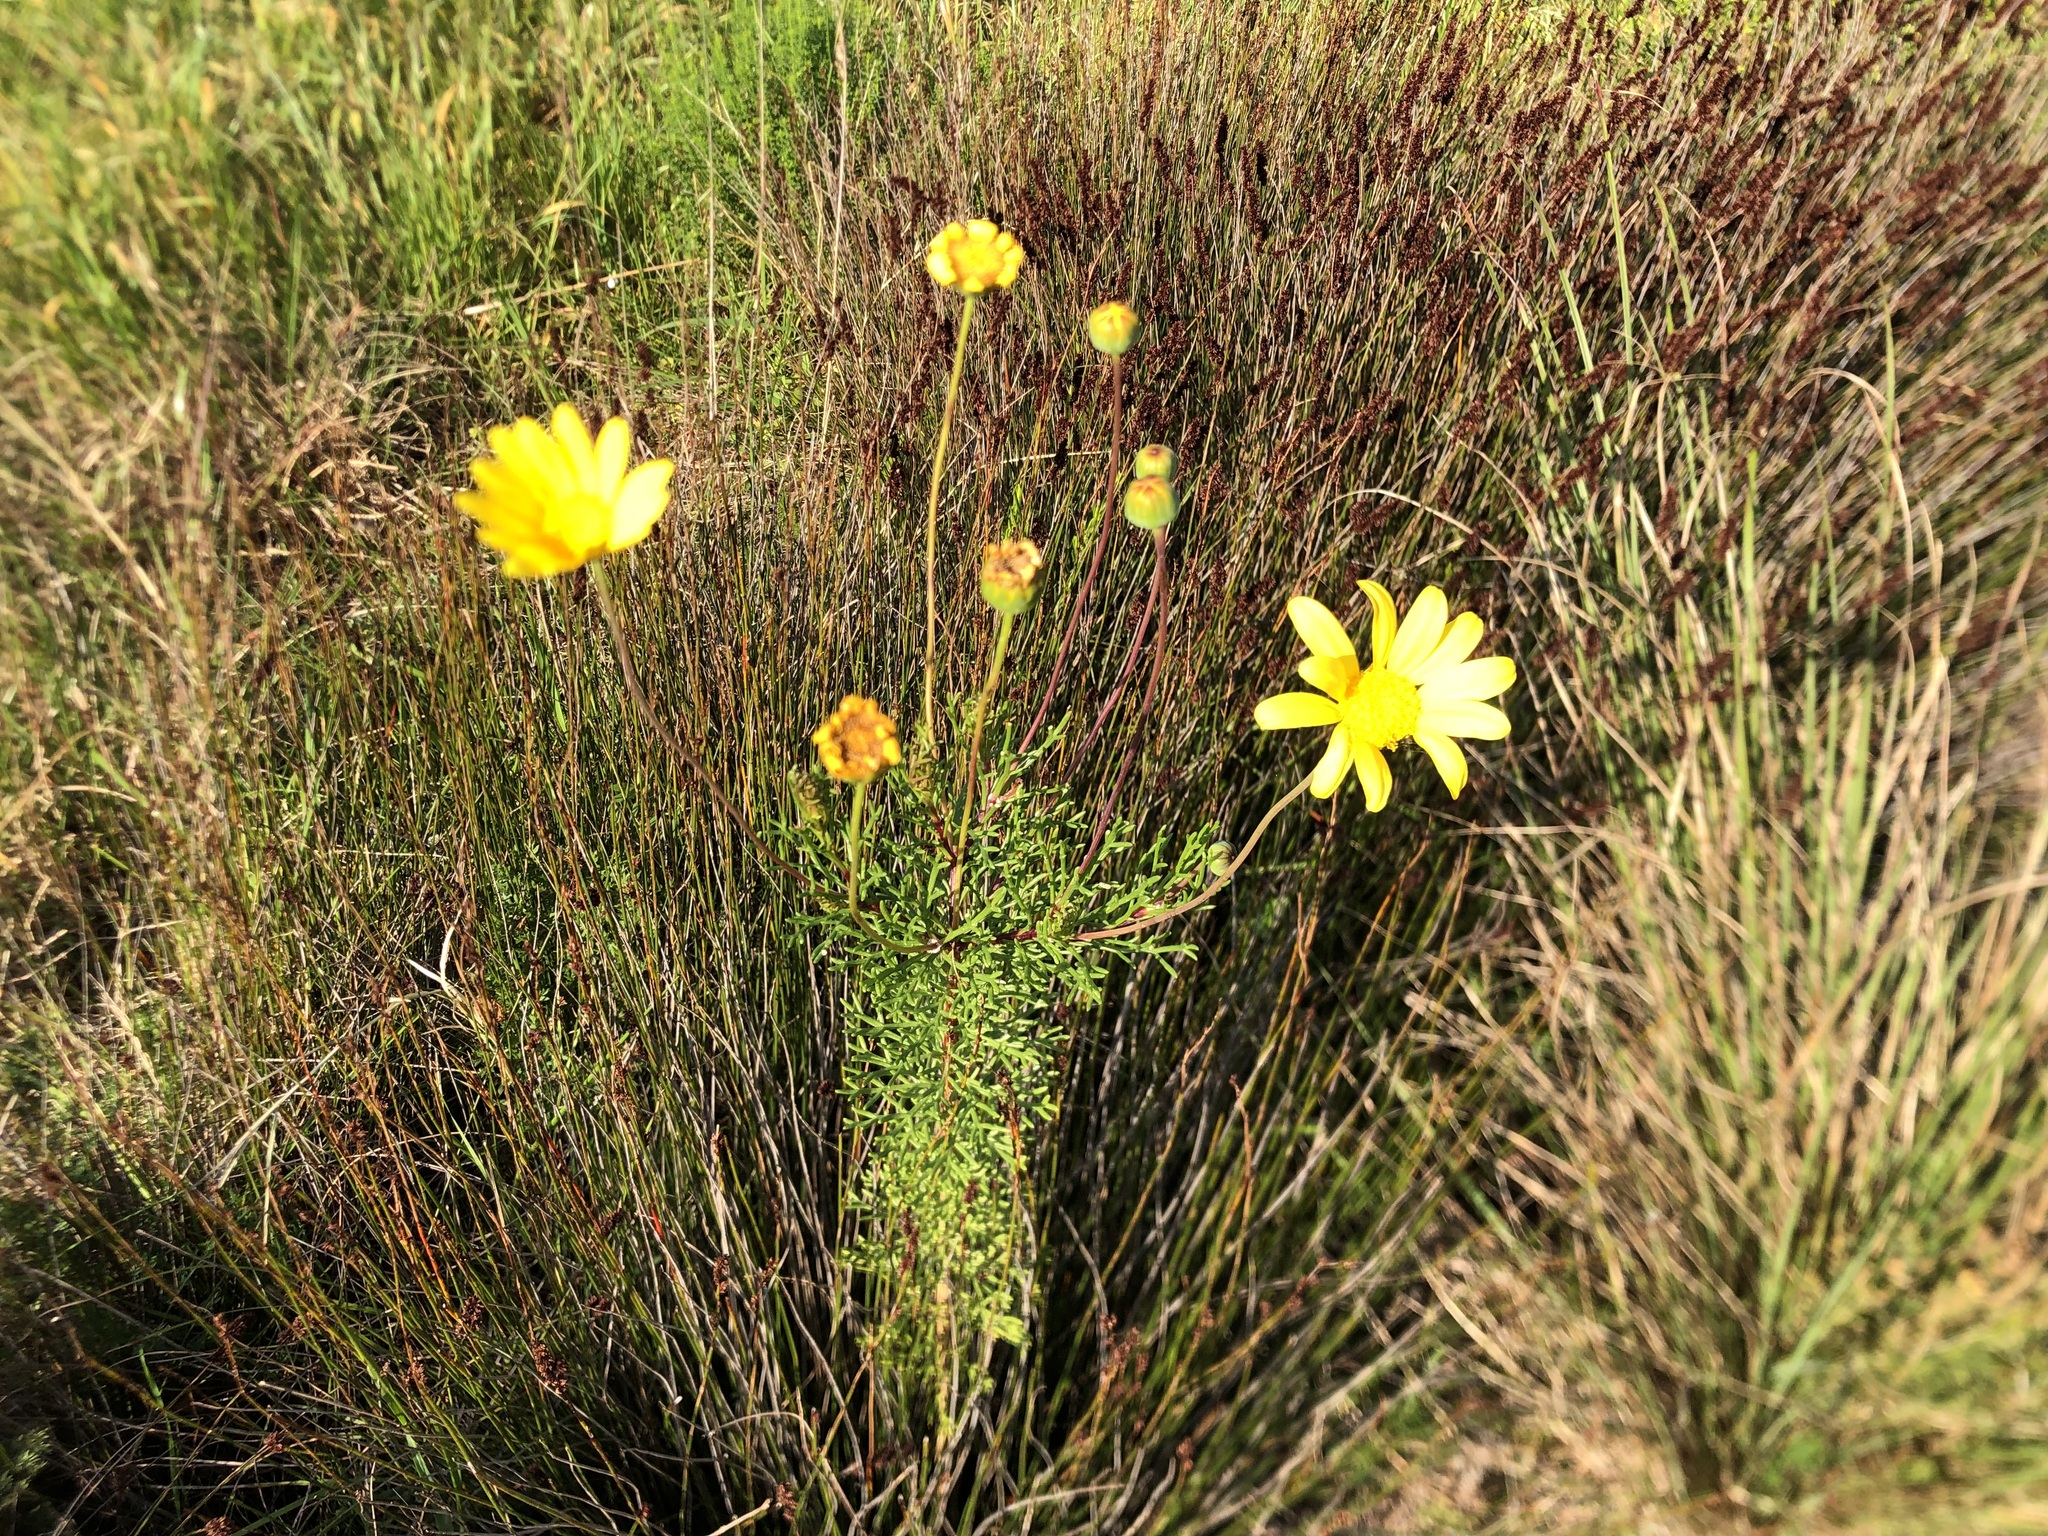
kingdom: Plantae
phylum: Tracheophyta
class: Magnoliopsida
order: Asterales
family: Asteraceae
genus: Euryops
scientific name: Euryops abrotanifolius
